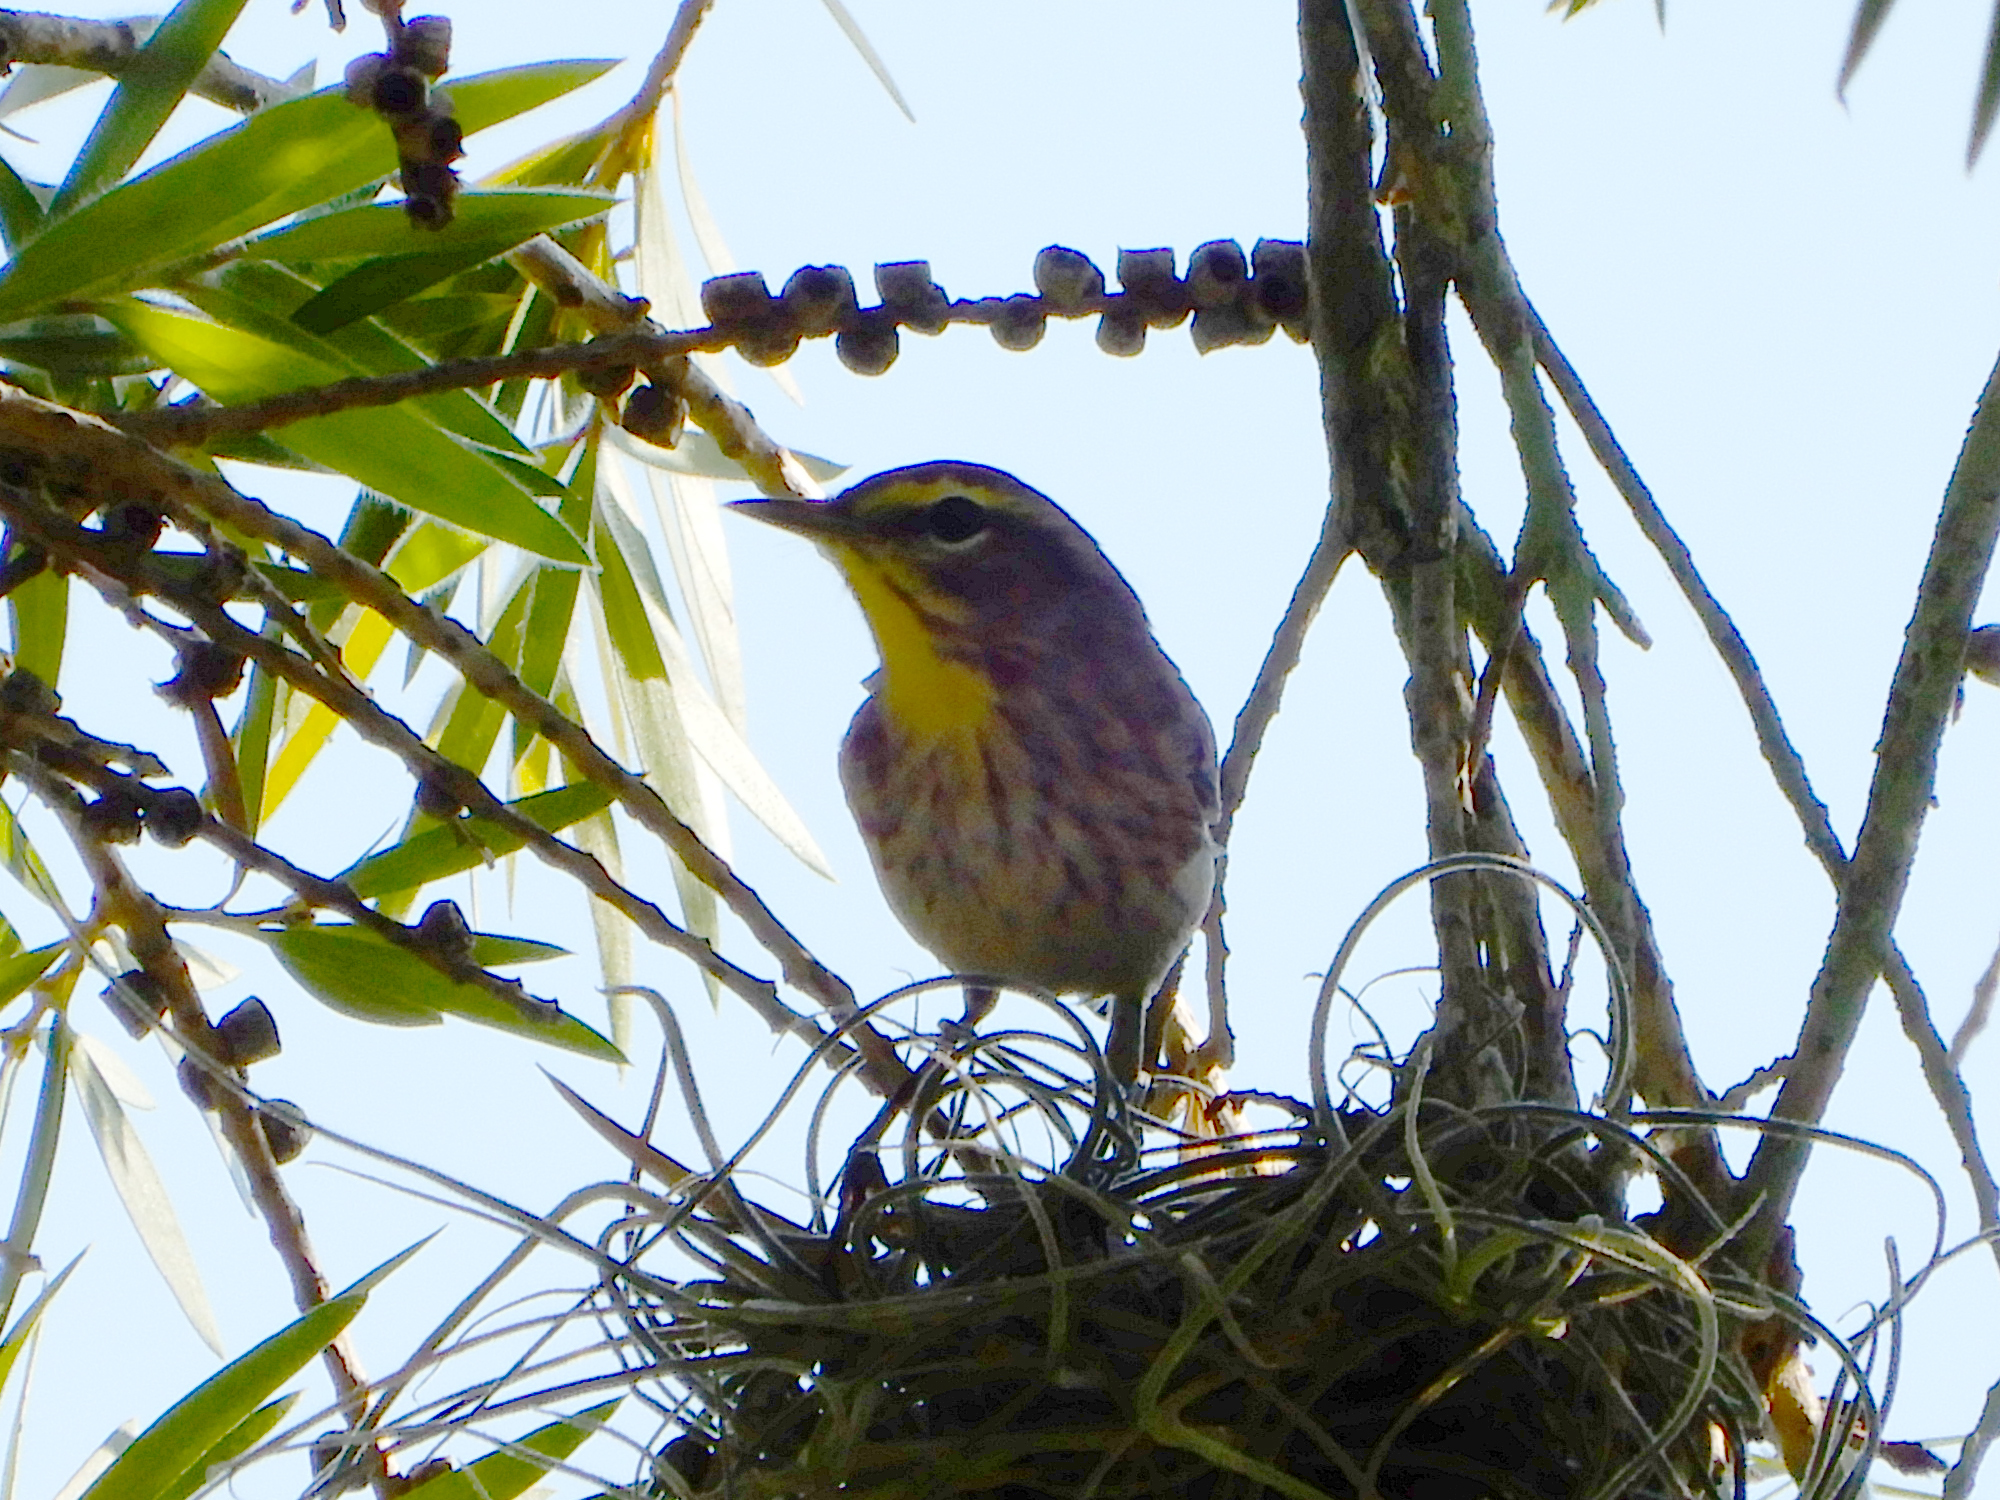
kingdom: Animalia
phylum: Chordata
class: Aves
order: Passeriformes
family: Parulidae
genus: Setophaga
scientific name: Setophaga palmarum
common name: Palm warbler
